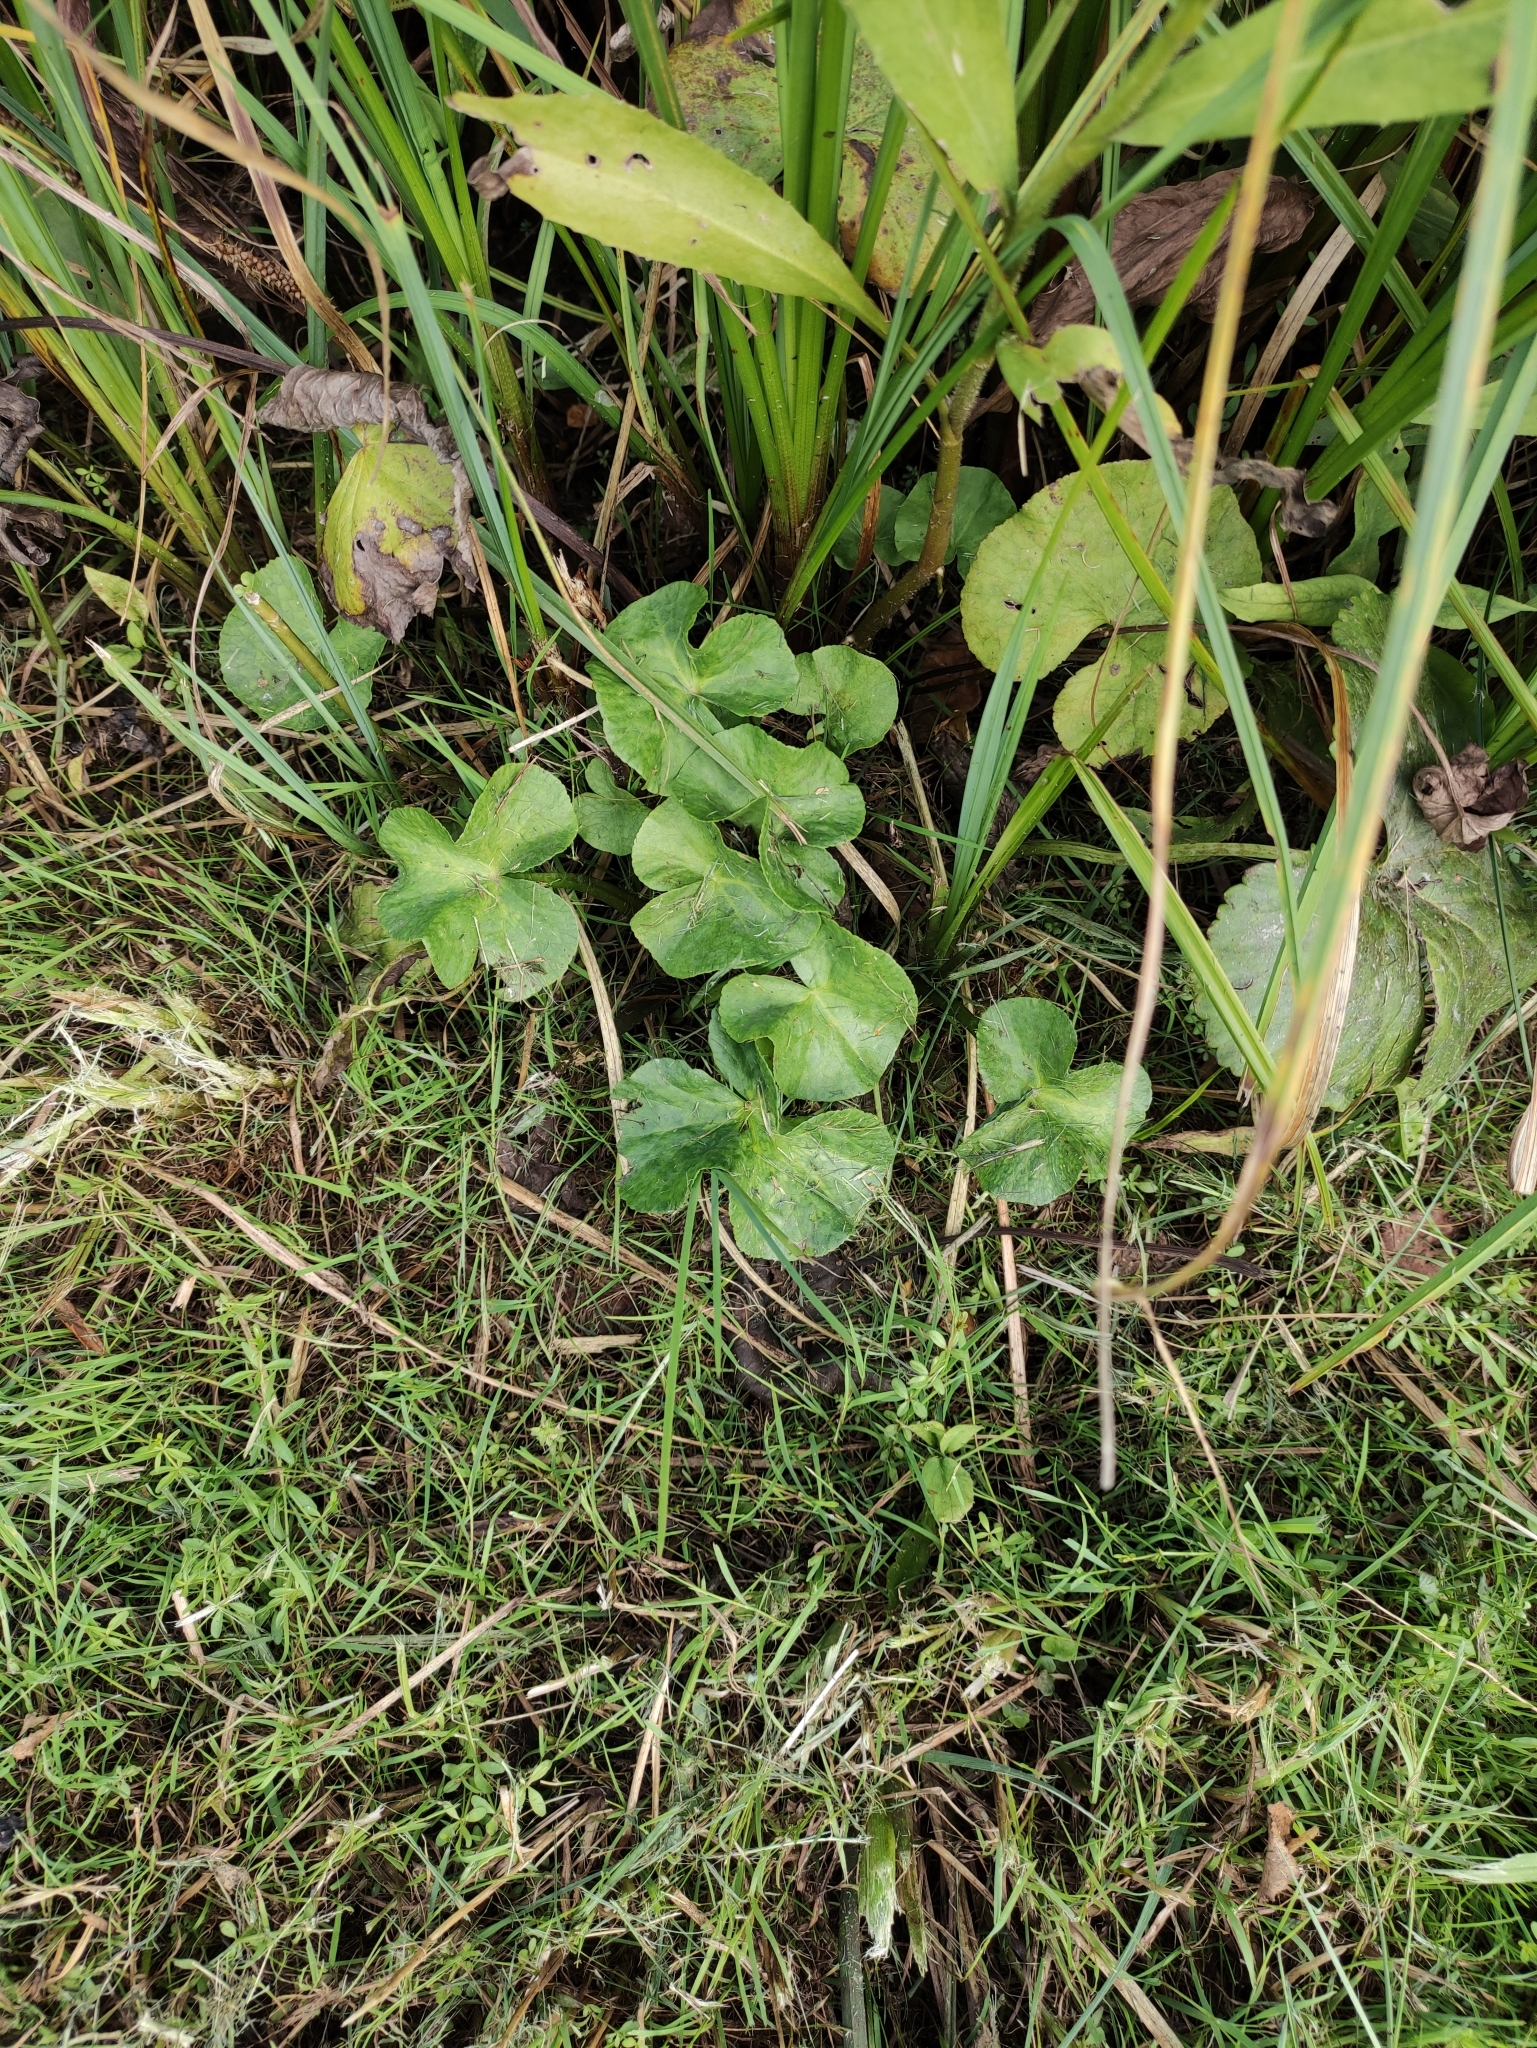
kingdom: Plantae
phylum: Tracheophyta
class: Magnoliopsida
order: Ranunculales
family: Ranunculaceae
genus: Caltha
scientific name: Caltha palustris
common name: Marsh marigold
